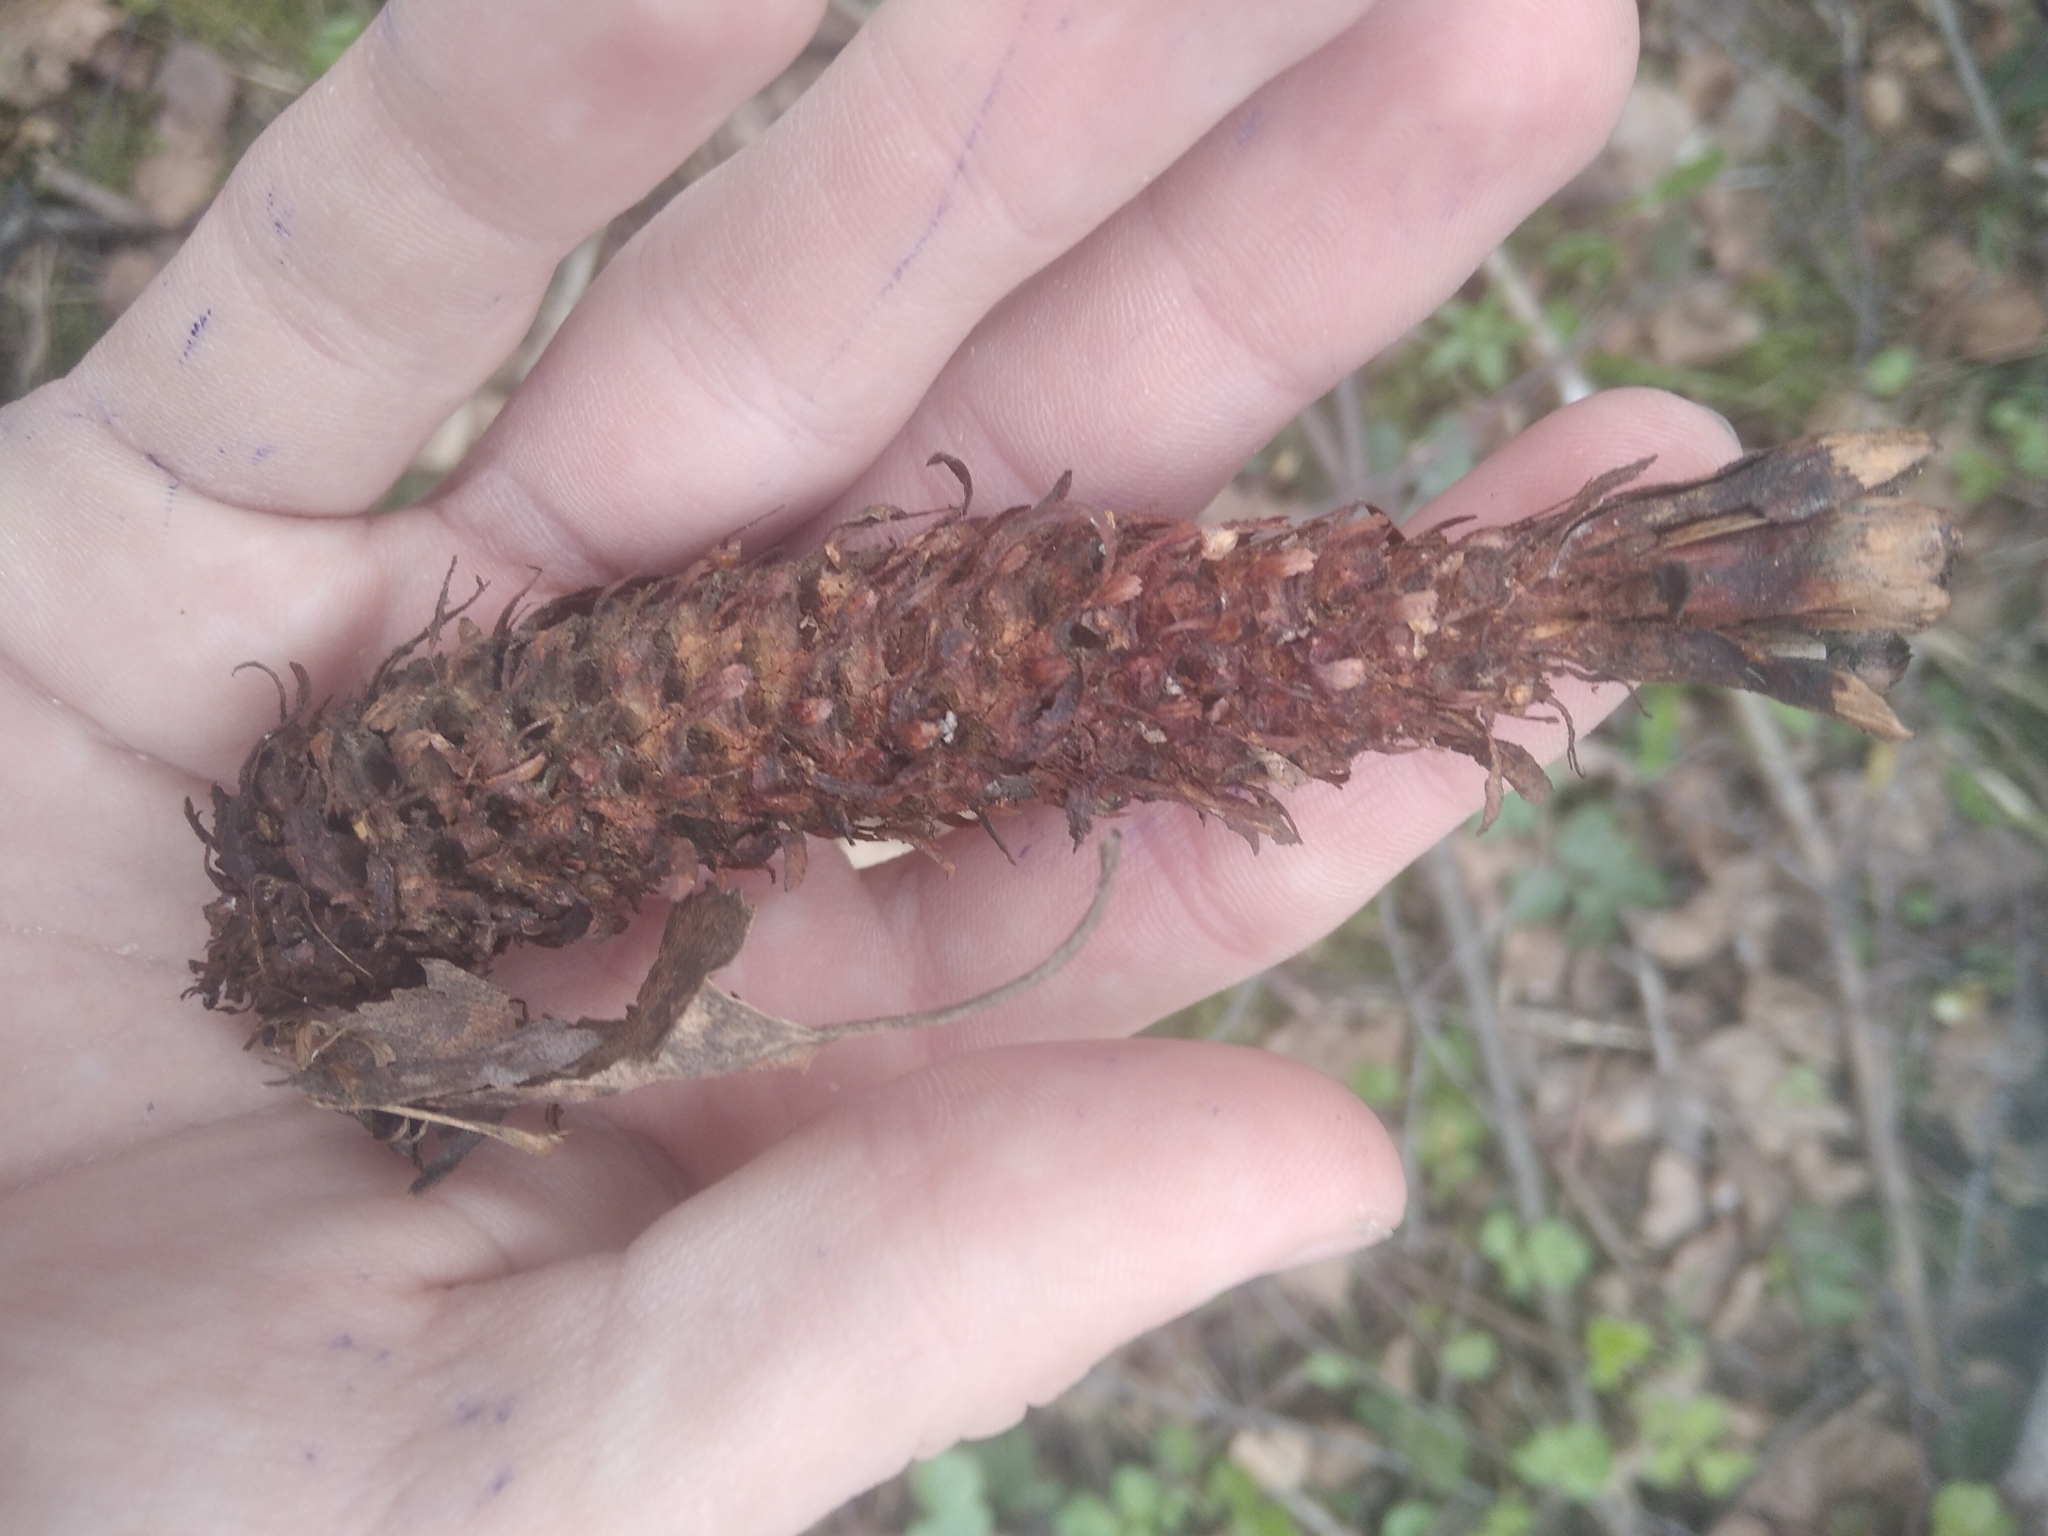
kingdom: Animalia
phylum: Chordata
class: Mammalia
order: Rodentia
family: Sciuridae
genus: Sciurus
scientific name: Sciurus vulgaris
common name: Eurasian red squirrel
